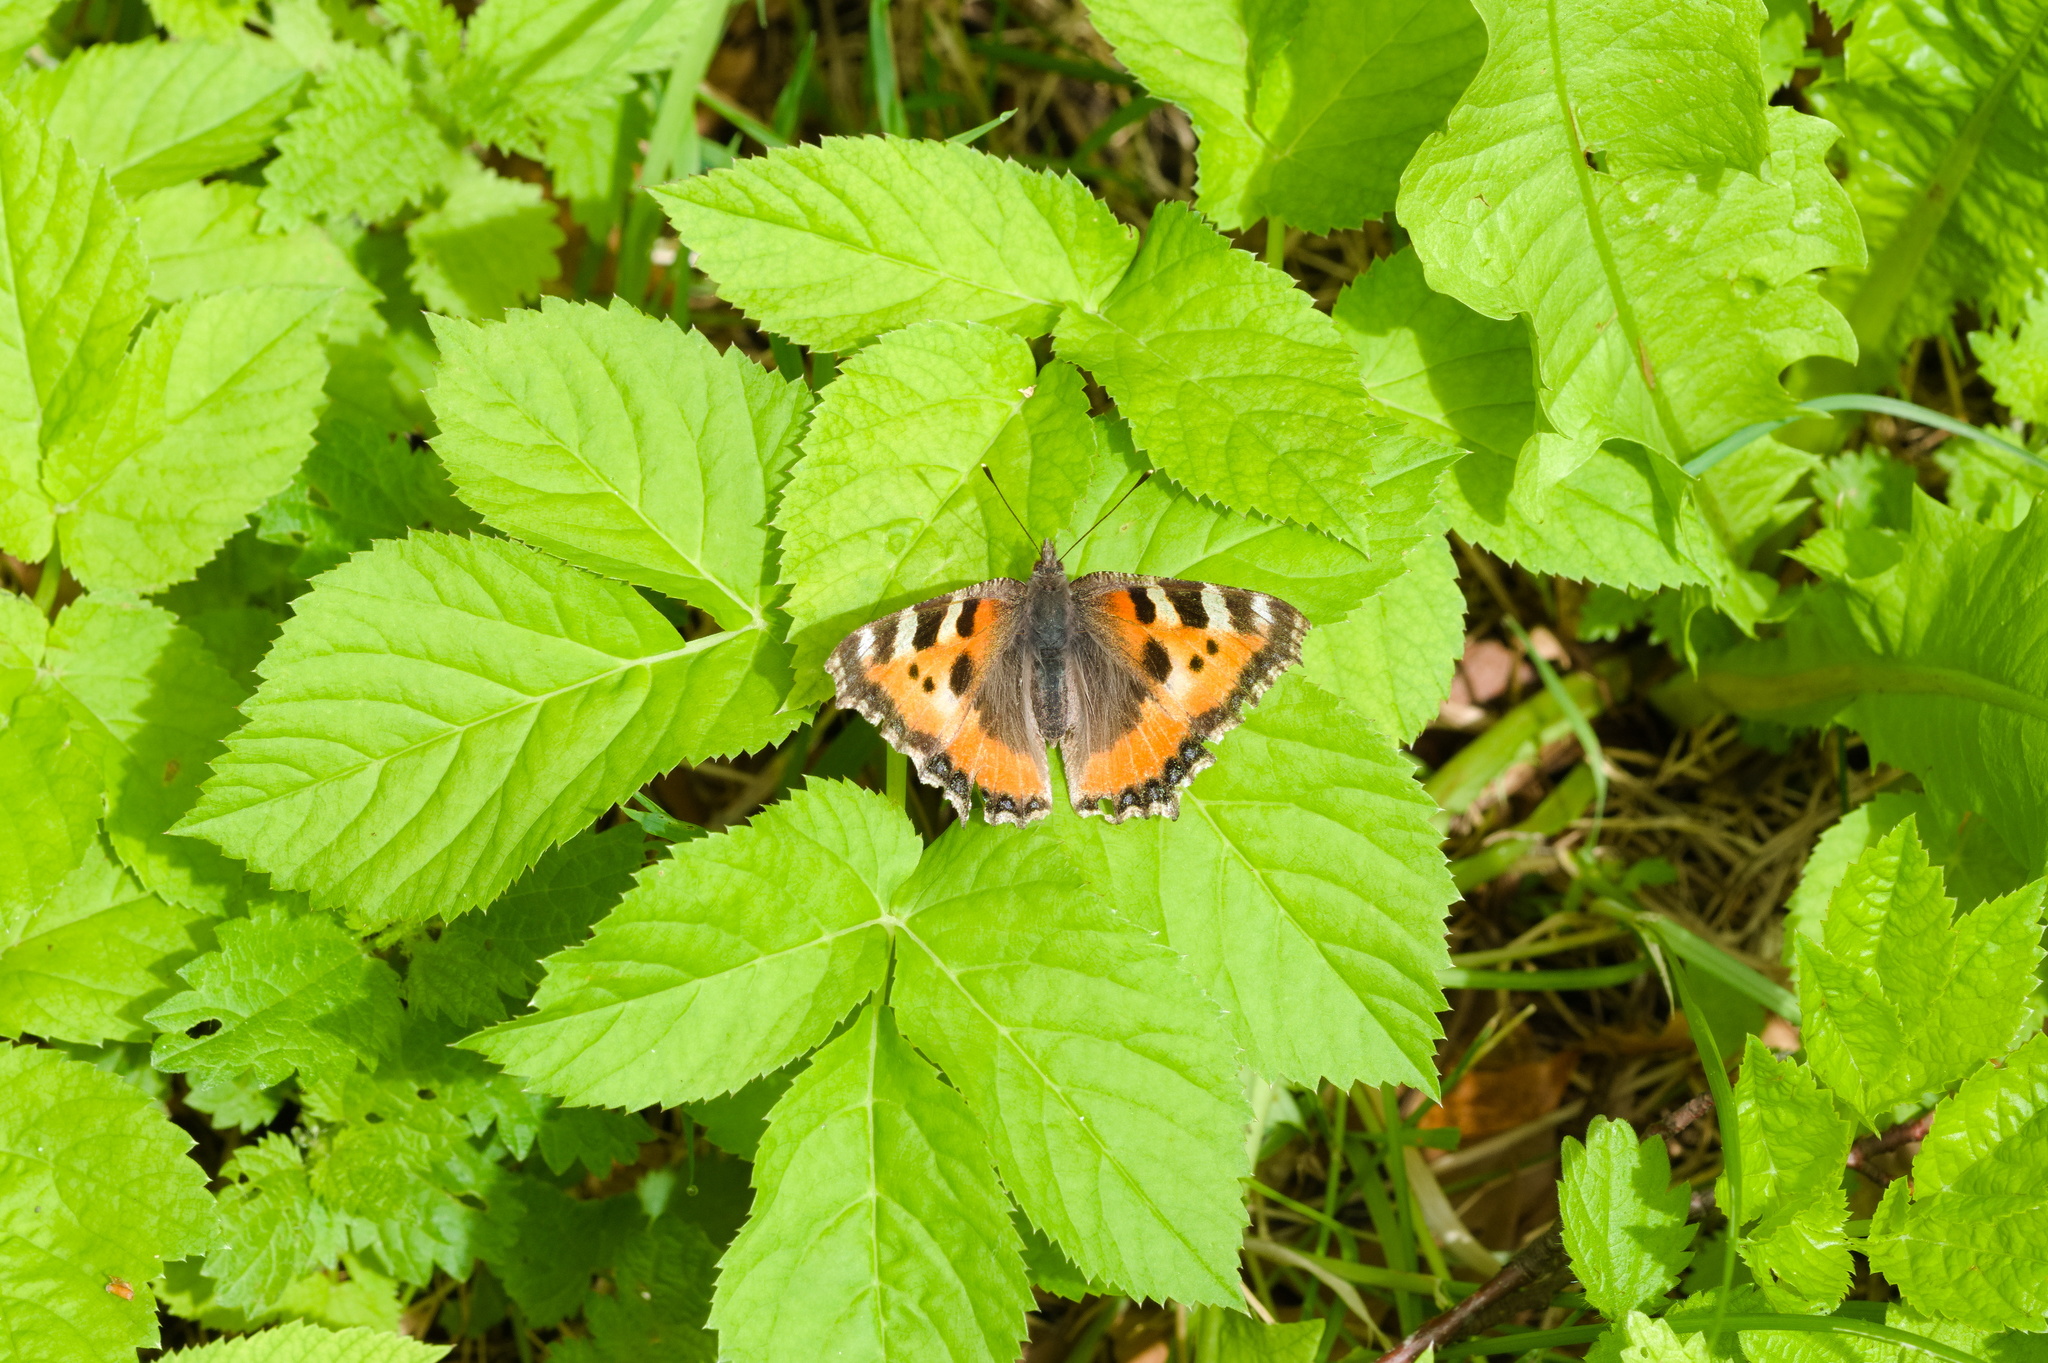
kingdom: Animalia
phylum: Arthropoda
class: Insecta
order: Lepidoptera
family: Nymphalidae
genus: Aglais
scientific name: Aglais urticae
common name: Small tortoiseshell
